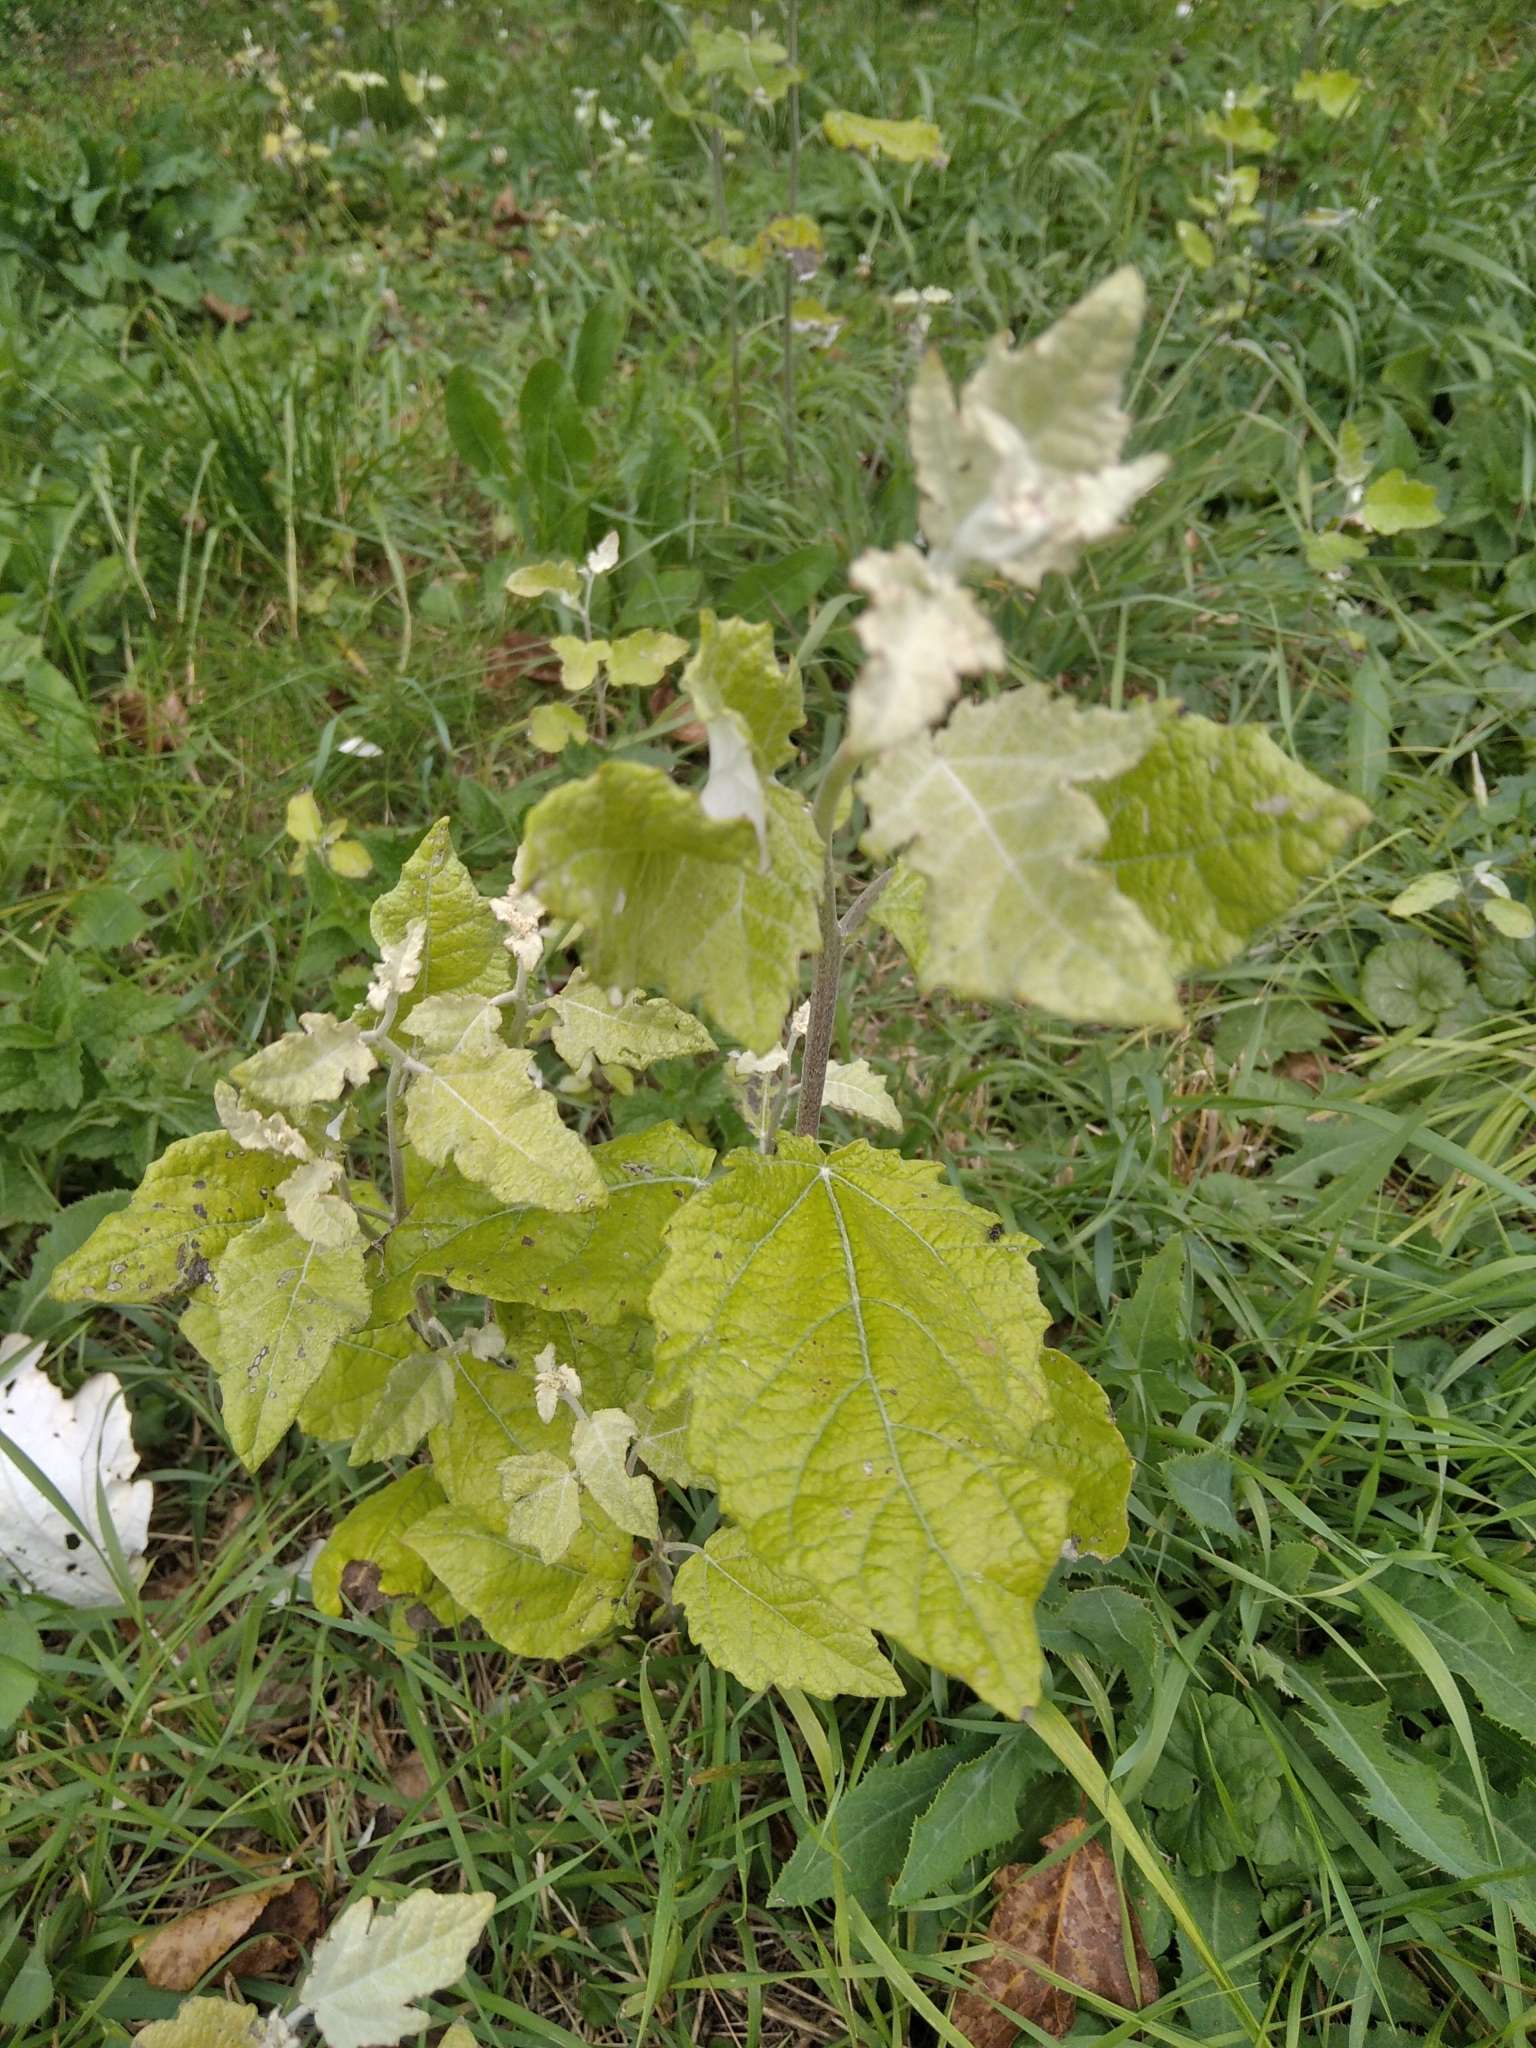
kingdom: Plantae
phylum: Tracheophyta
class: Magnoliopsida
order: Malpighiales
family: Salicaceae
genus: Populus
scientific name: Populus alba
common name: White poplar
